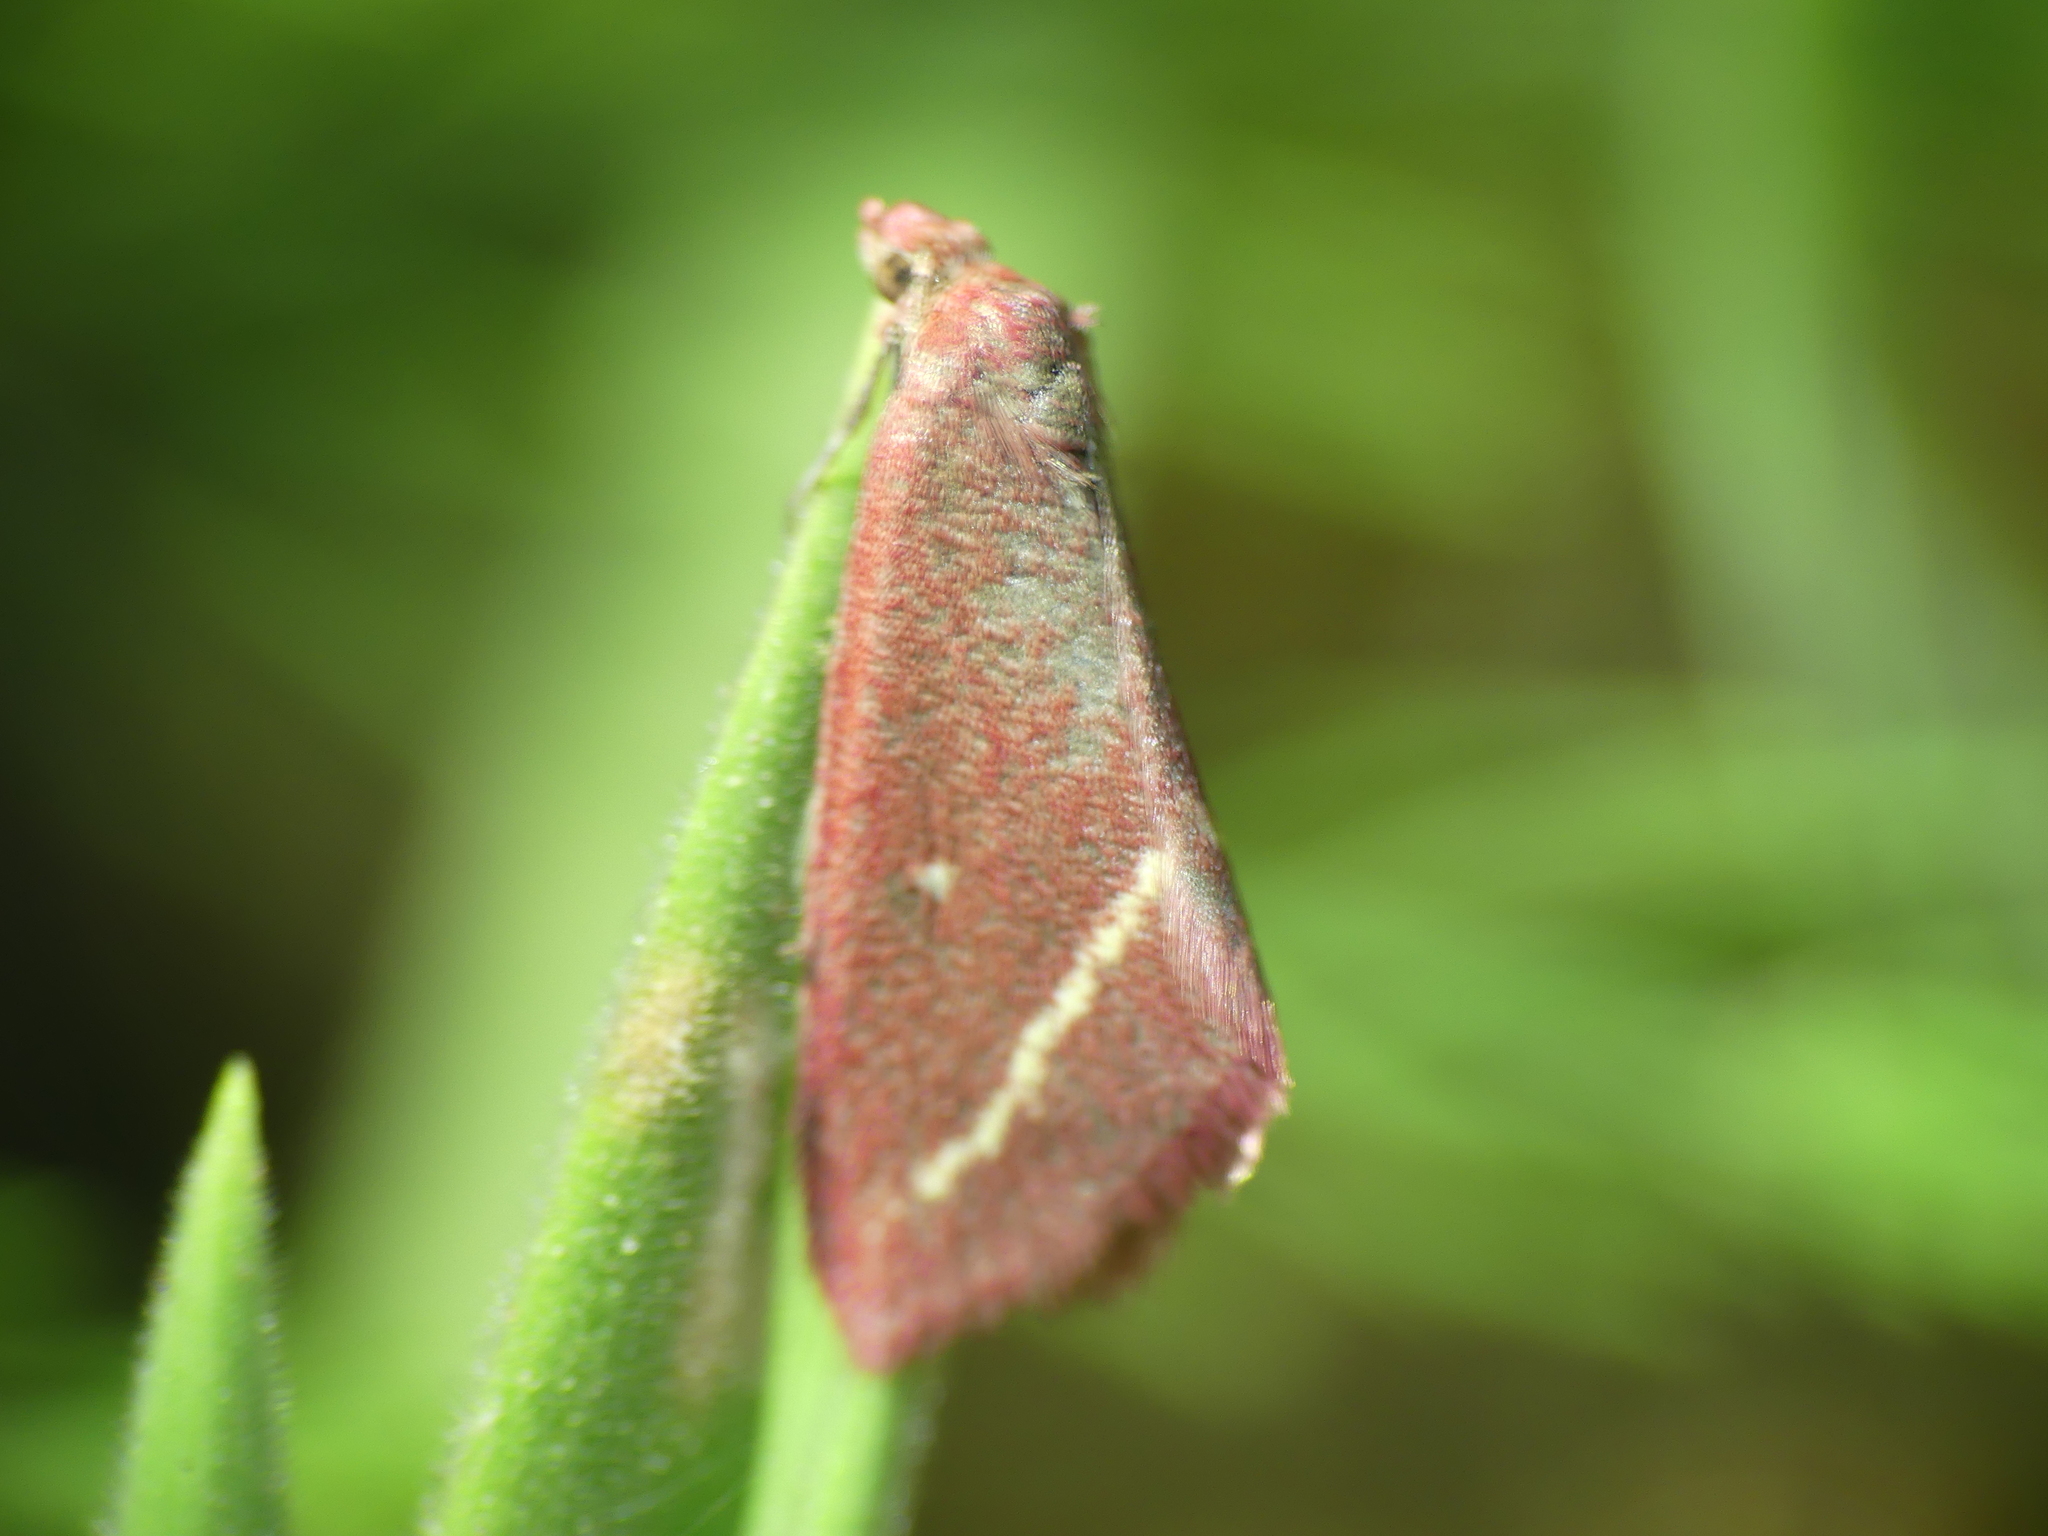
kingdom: Animalia
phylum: Arthropoda
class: Insecta
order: Lepidoptera
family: Geometridae
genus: Casilda
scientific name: Casilda consecraria
